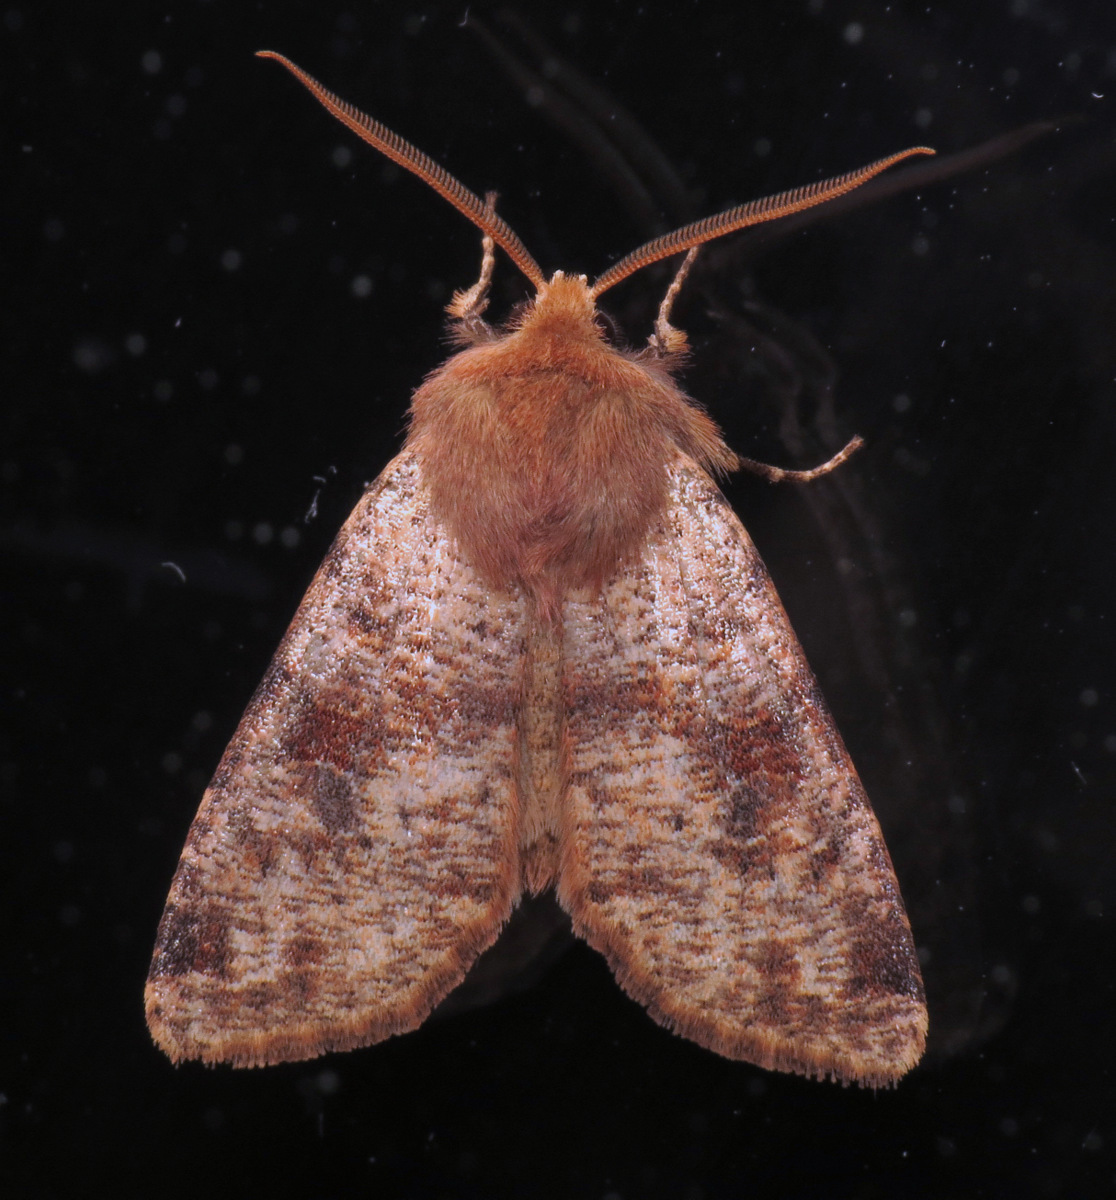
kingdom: Animalia
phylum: Arthropoda
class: Insecta
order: Lepidoptera
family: Noctuidae
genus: Orthosia
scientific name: Orthosia rubescens
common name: Ruby quaker
